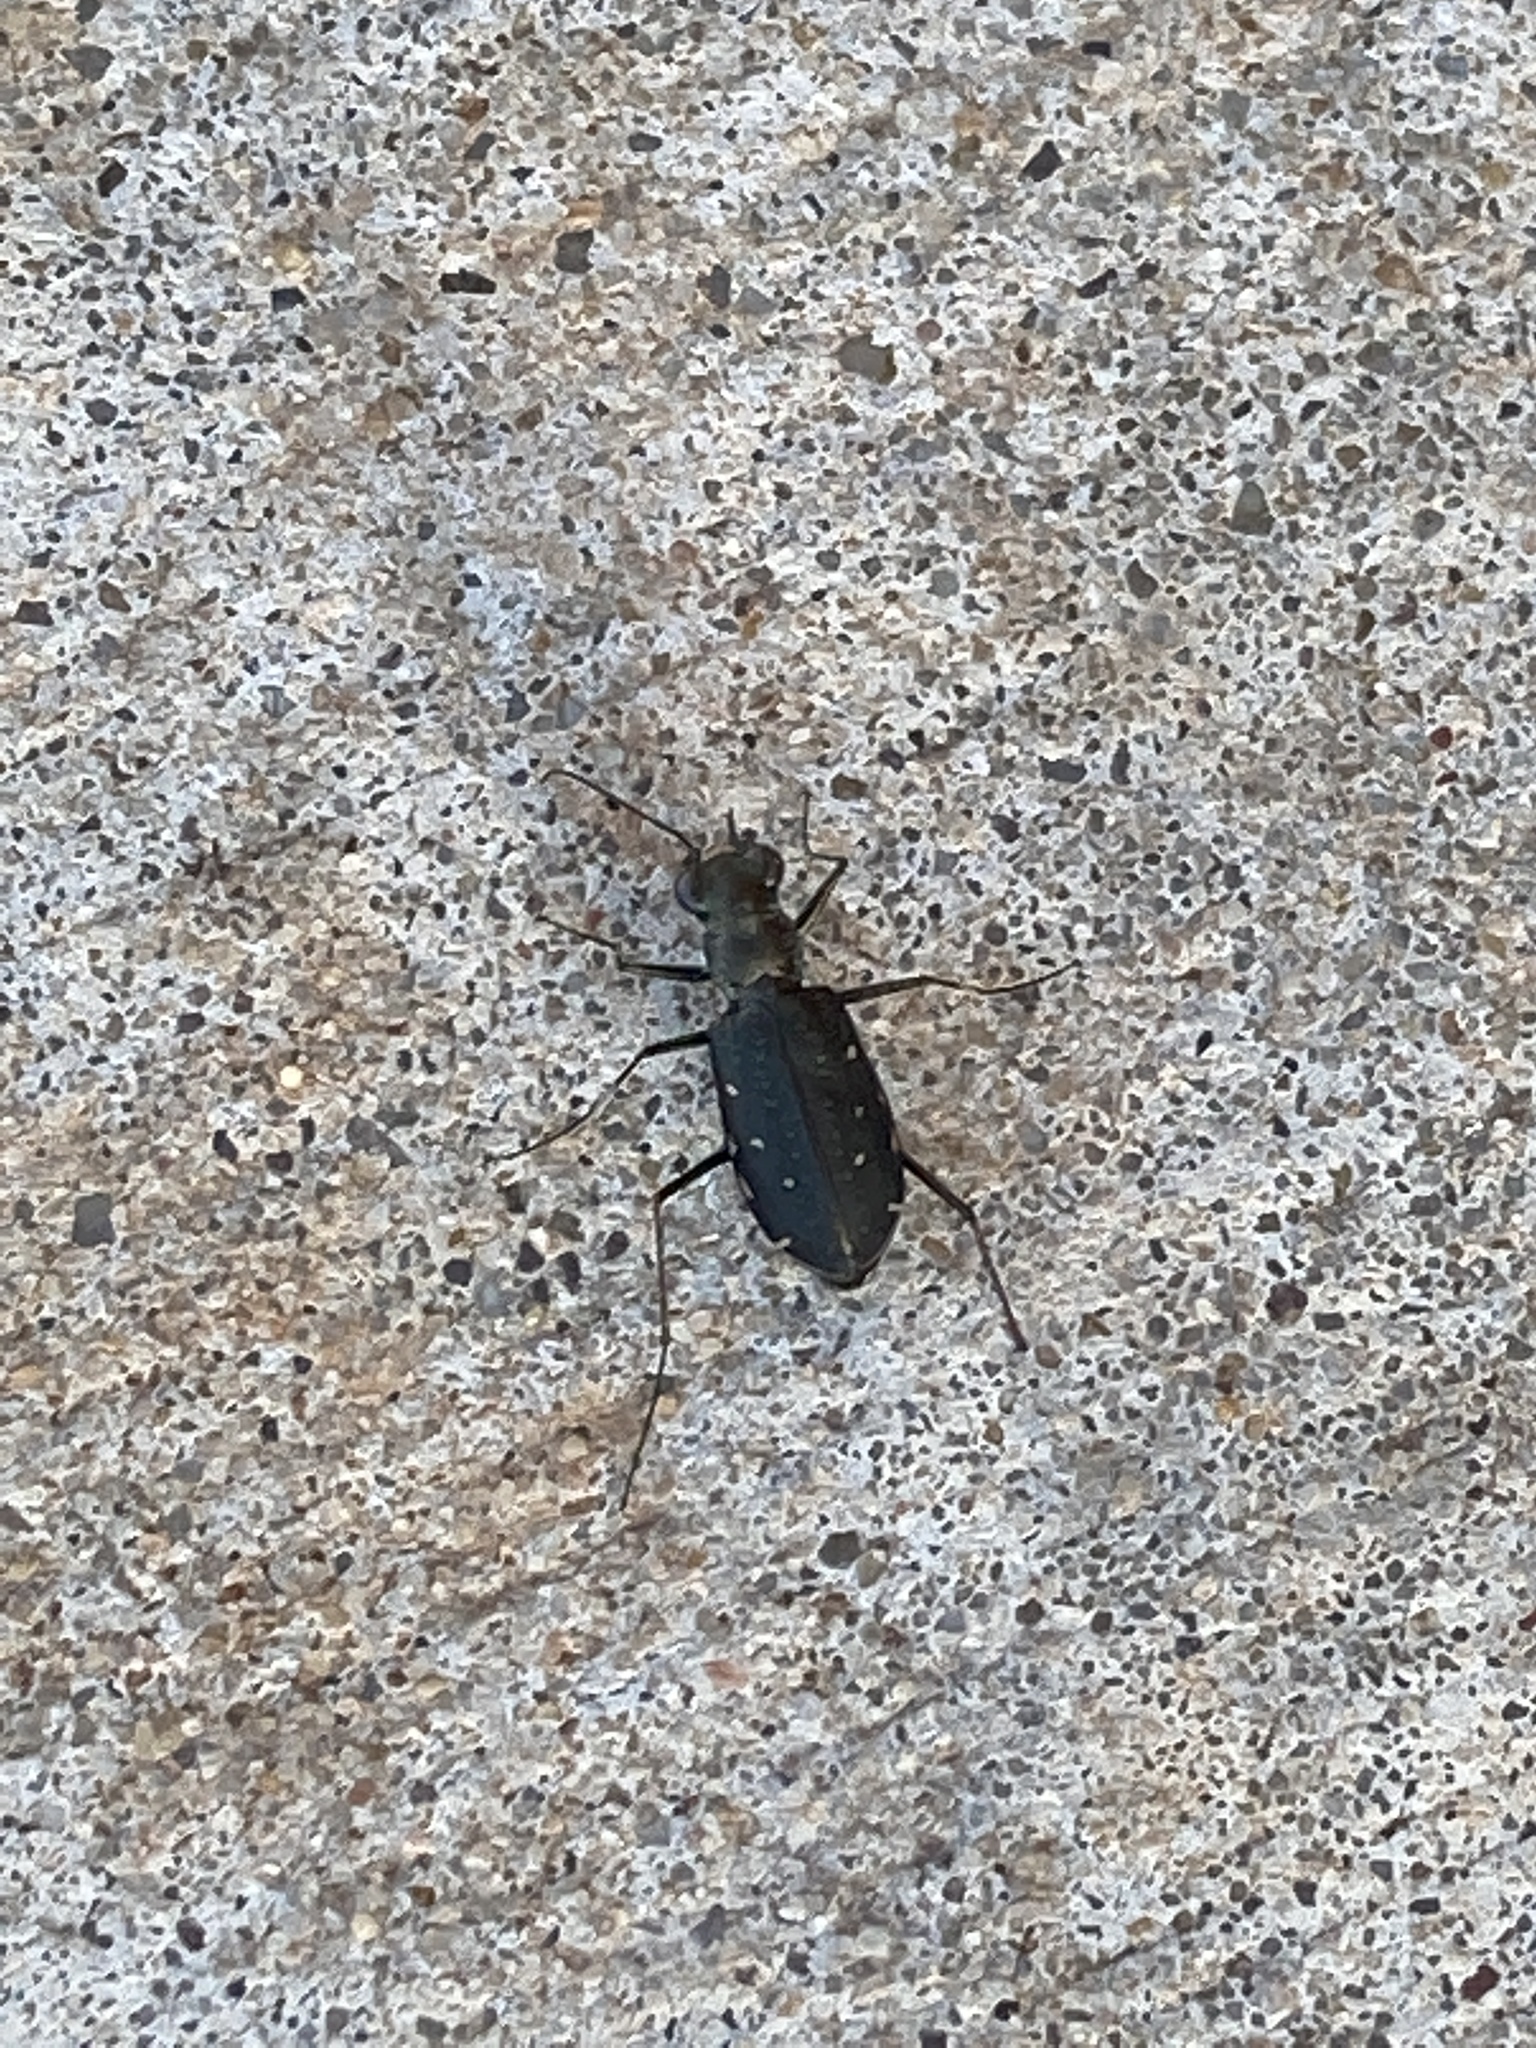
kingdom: Animalia
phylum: Arthropoda
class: Insecta
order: Coleoptera
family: Carabidae
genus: Cicindela
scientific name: Cicindela punctulata
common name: Punctured tiger beetle
